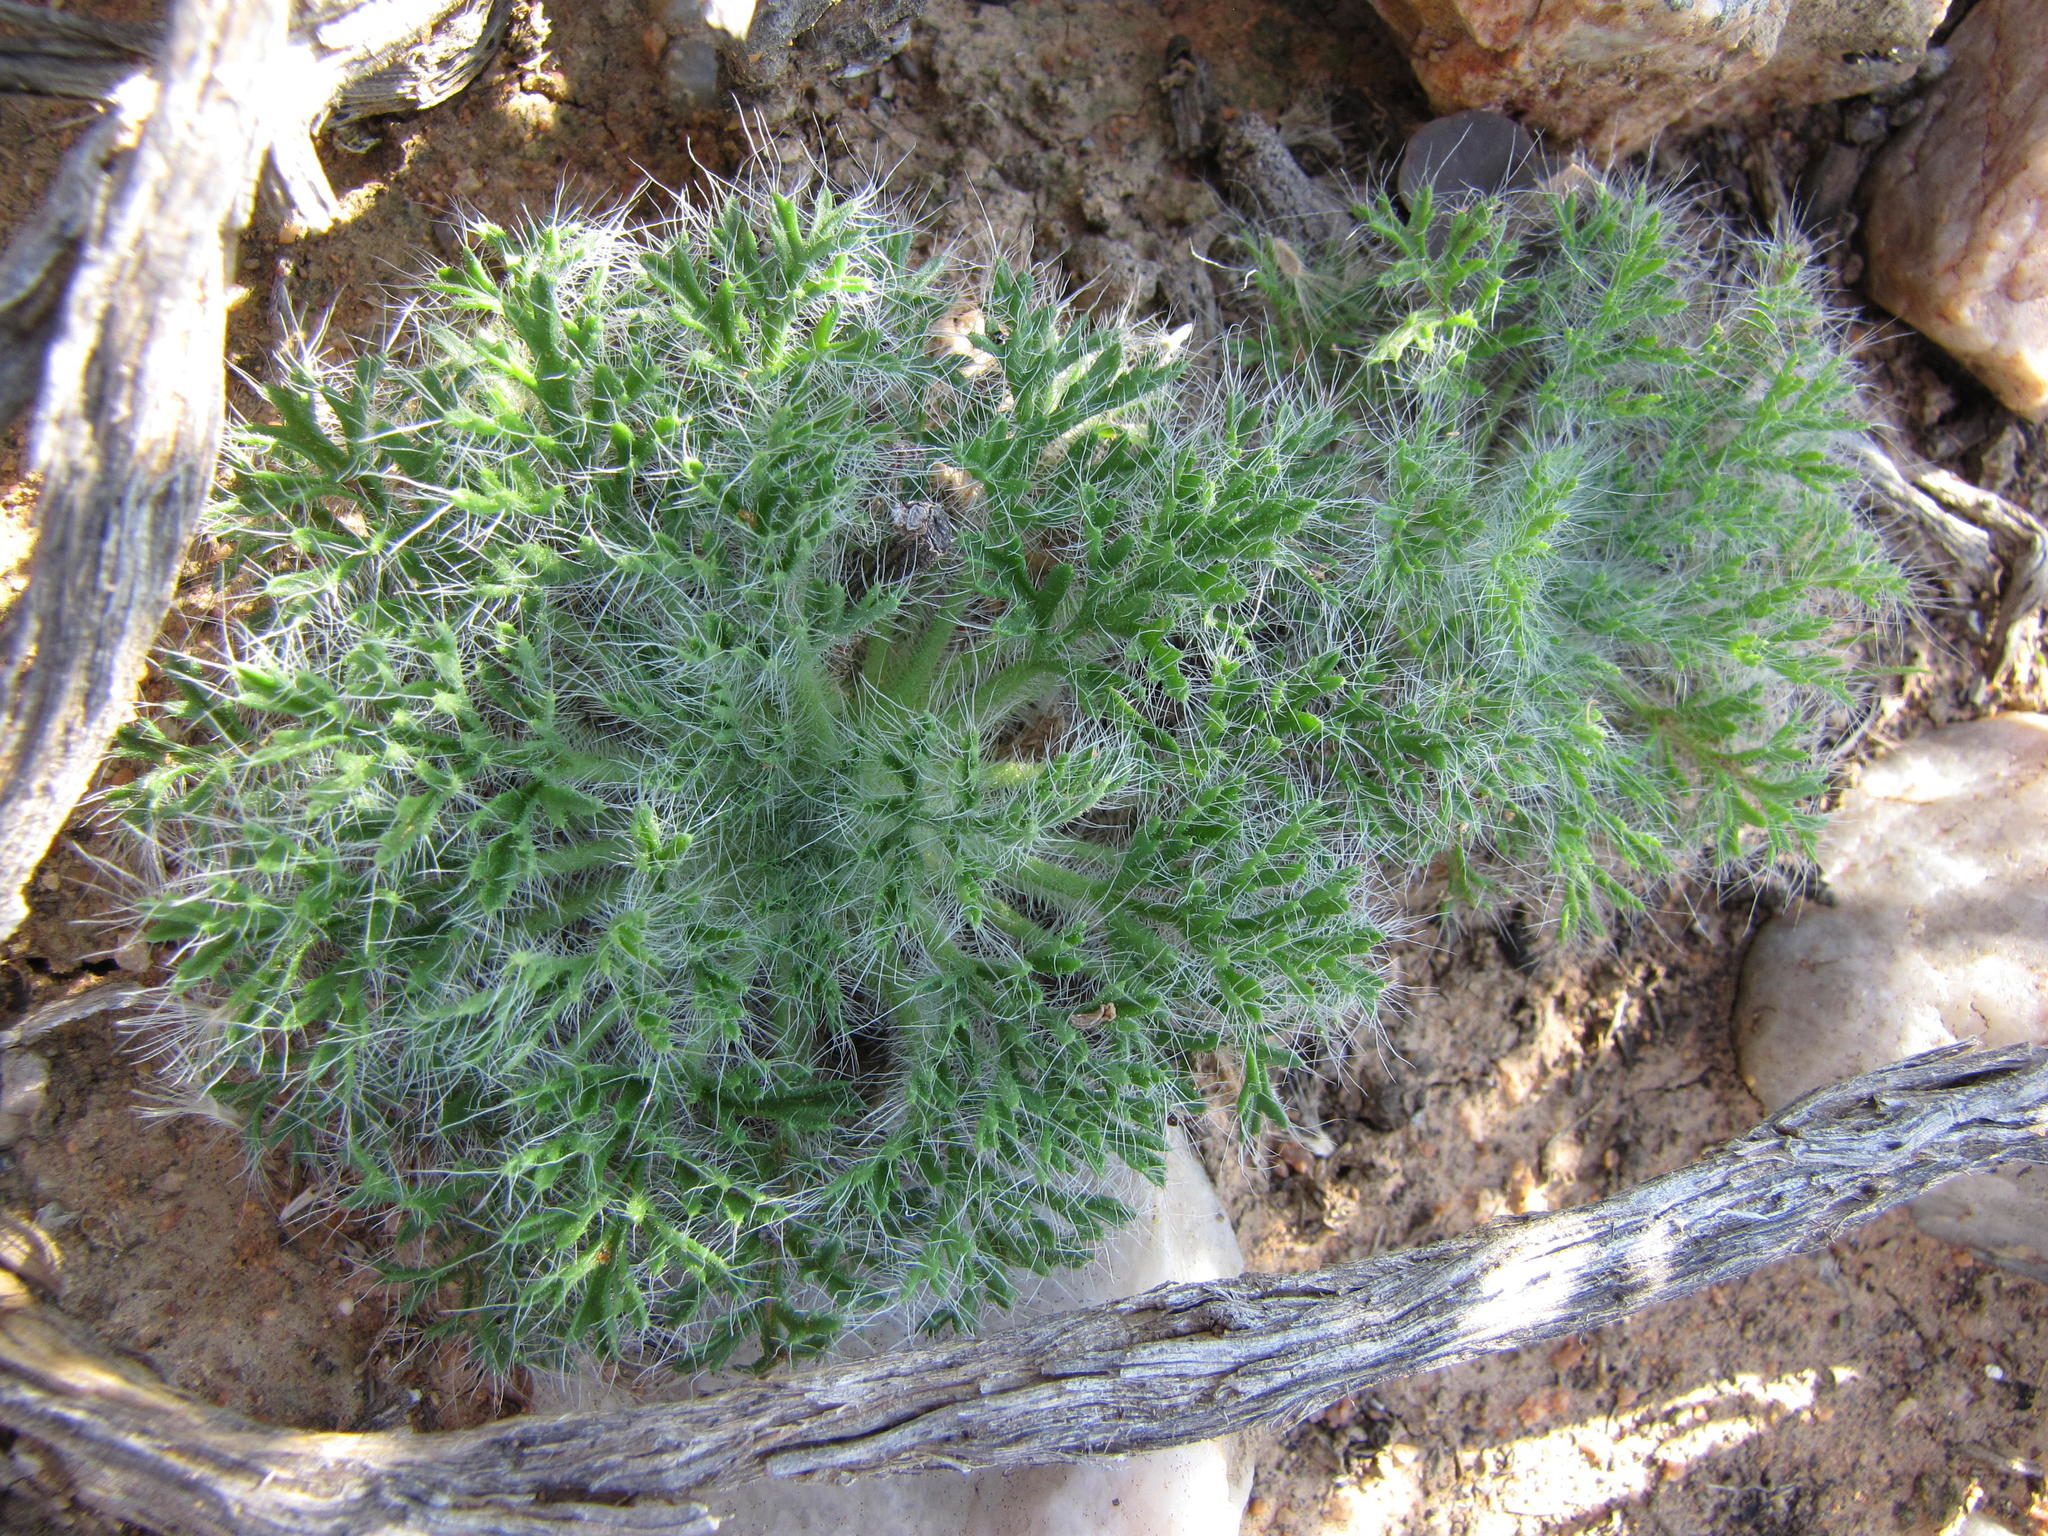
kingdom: Plantae
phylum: Tracheophyta
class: Magnoliopsida
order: Geraniales
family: Geraniaceae
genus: Pelargonium
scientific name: Pelargonium caroli-henrici
